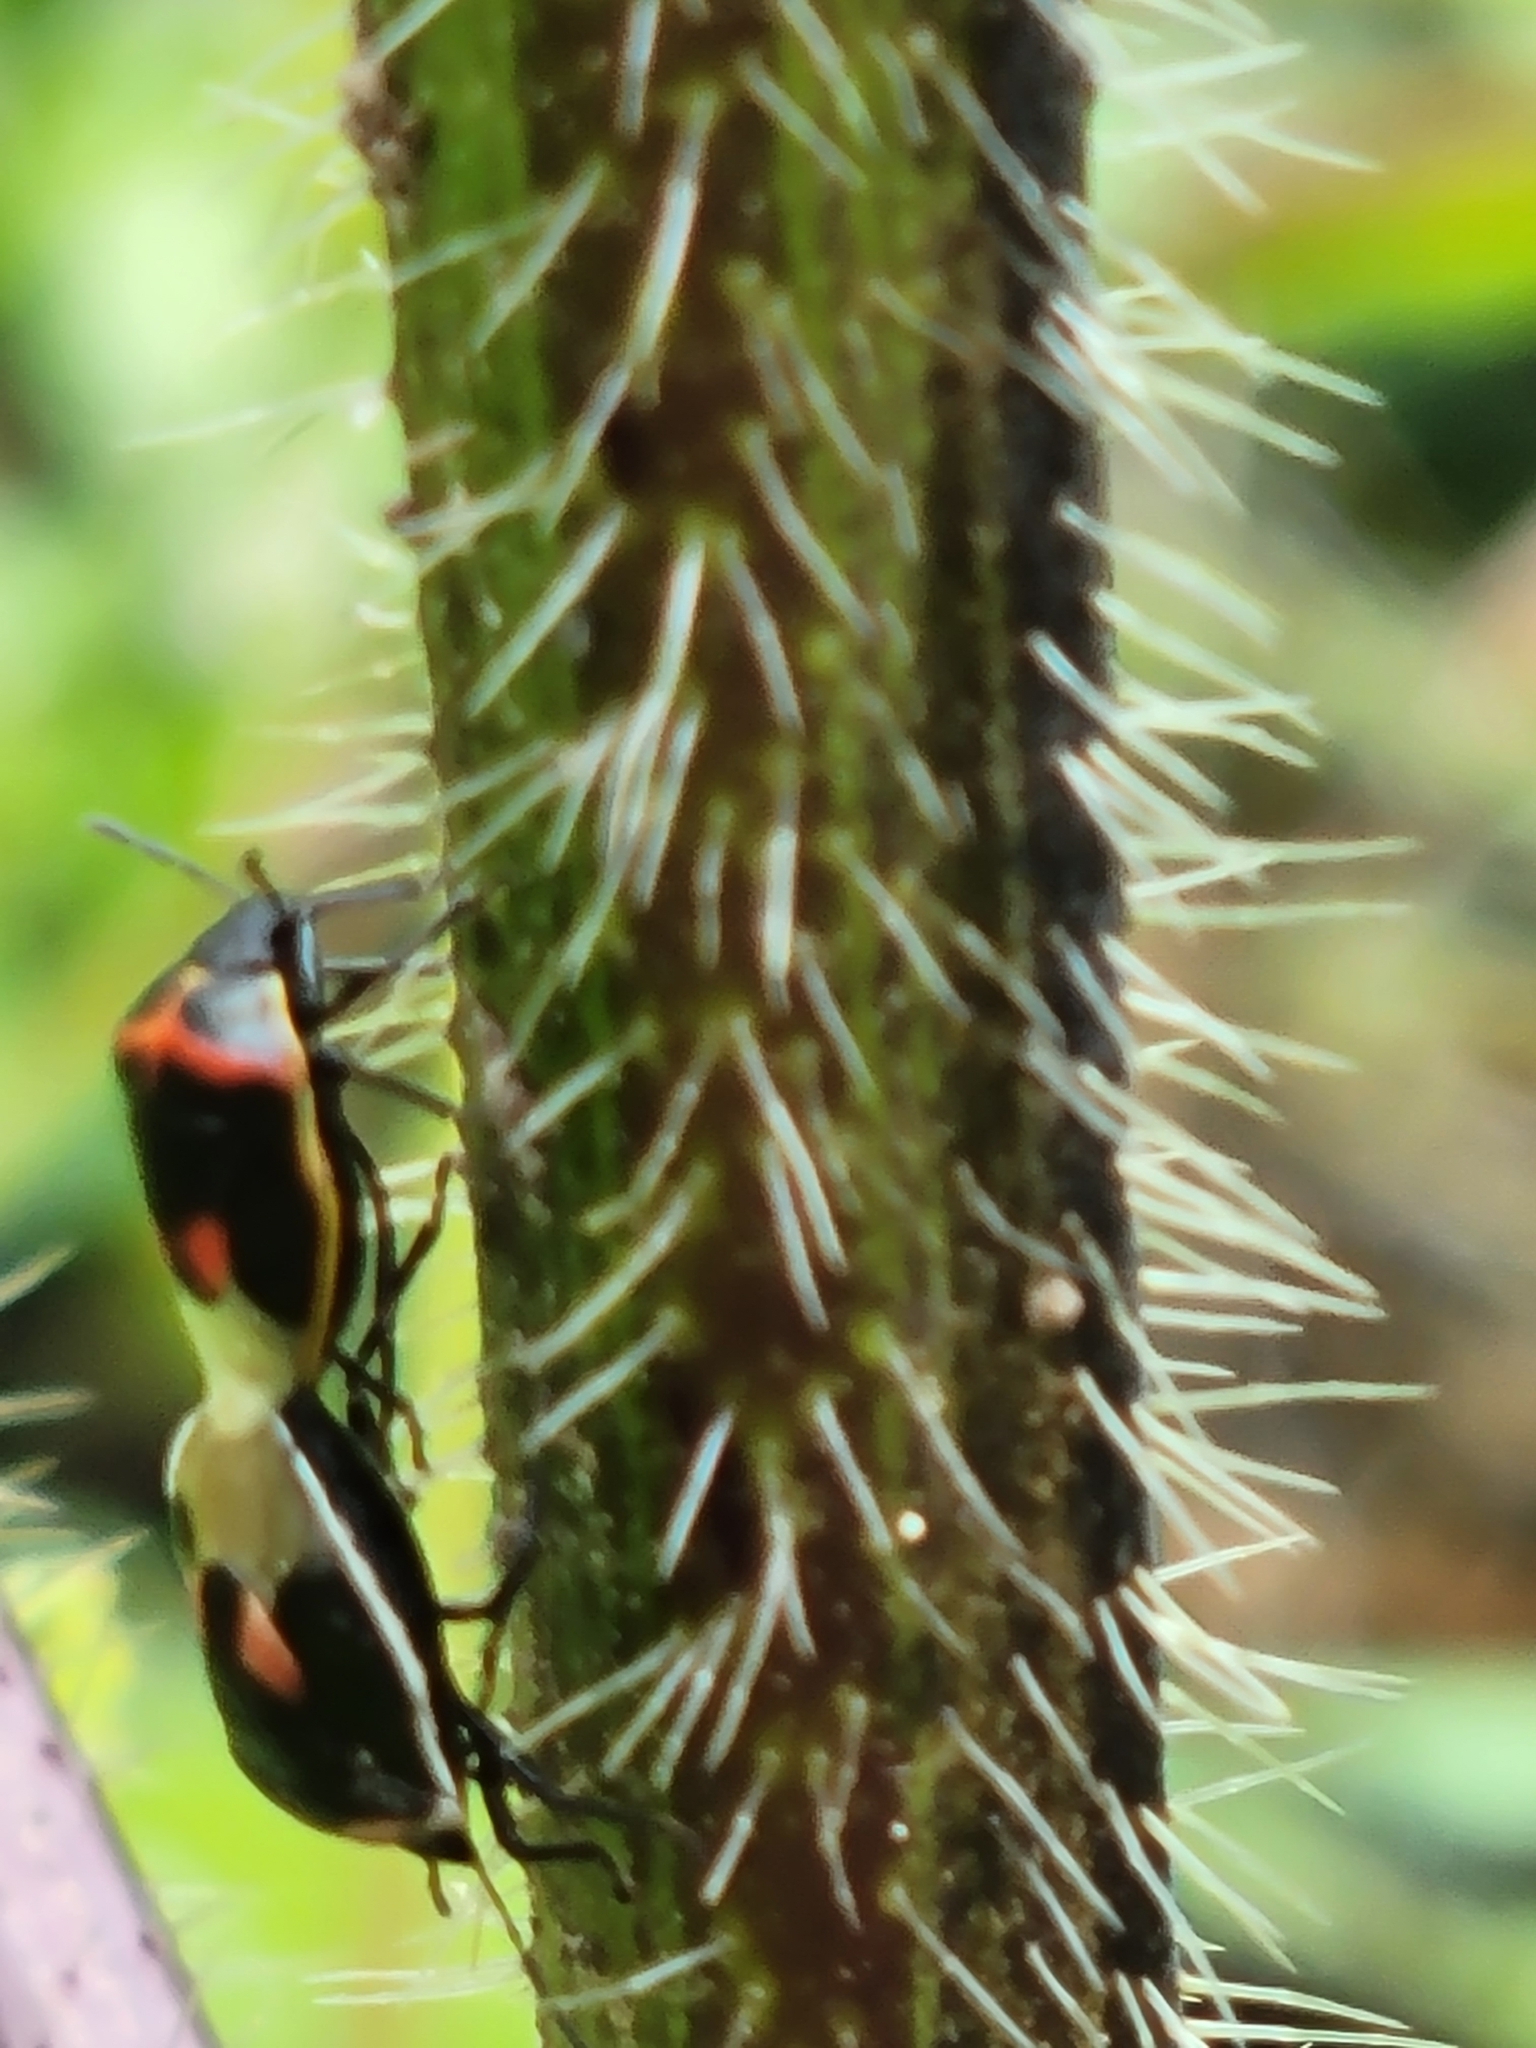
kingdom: Animalia
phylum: Arthropoda
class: Insecta
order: Hemiptera
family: Pentatomidae
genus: Cosmopepla
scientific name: Cosmopepla lintneriana
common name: Twice-stabbed stink bug
